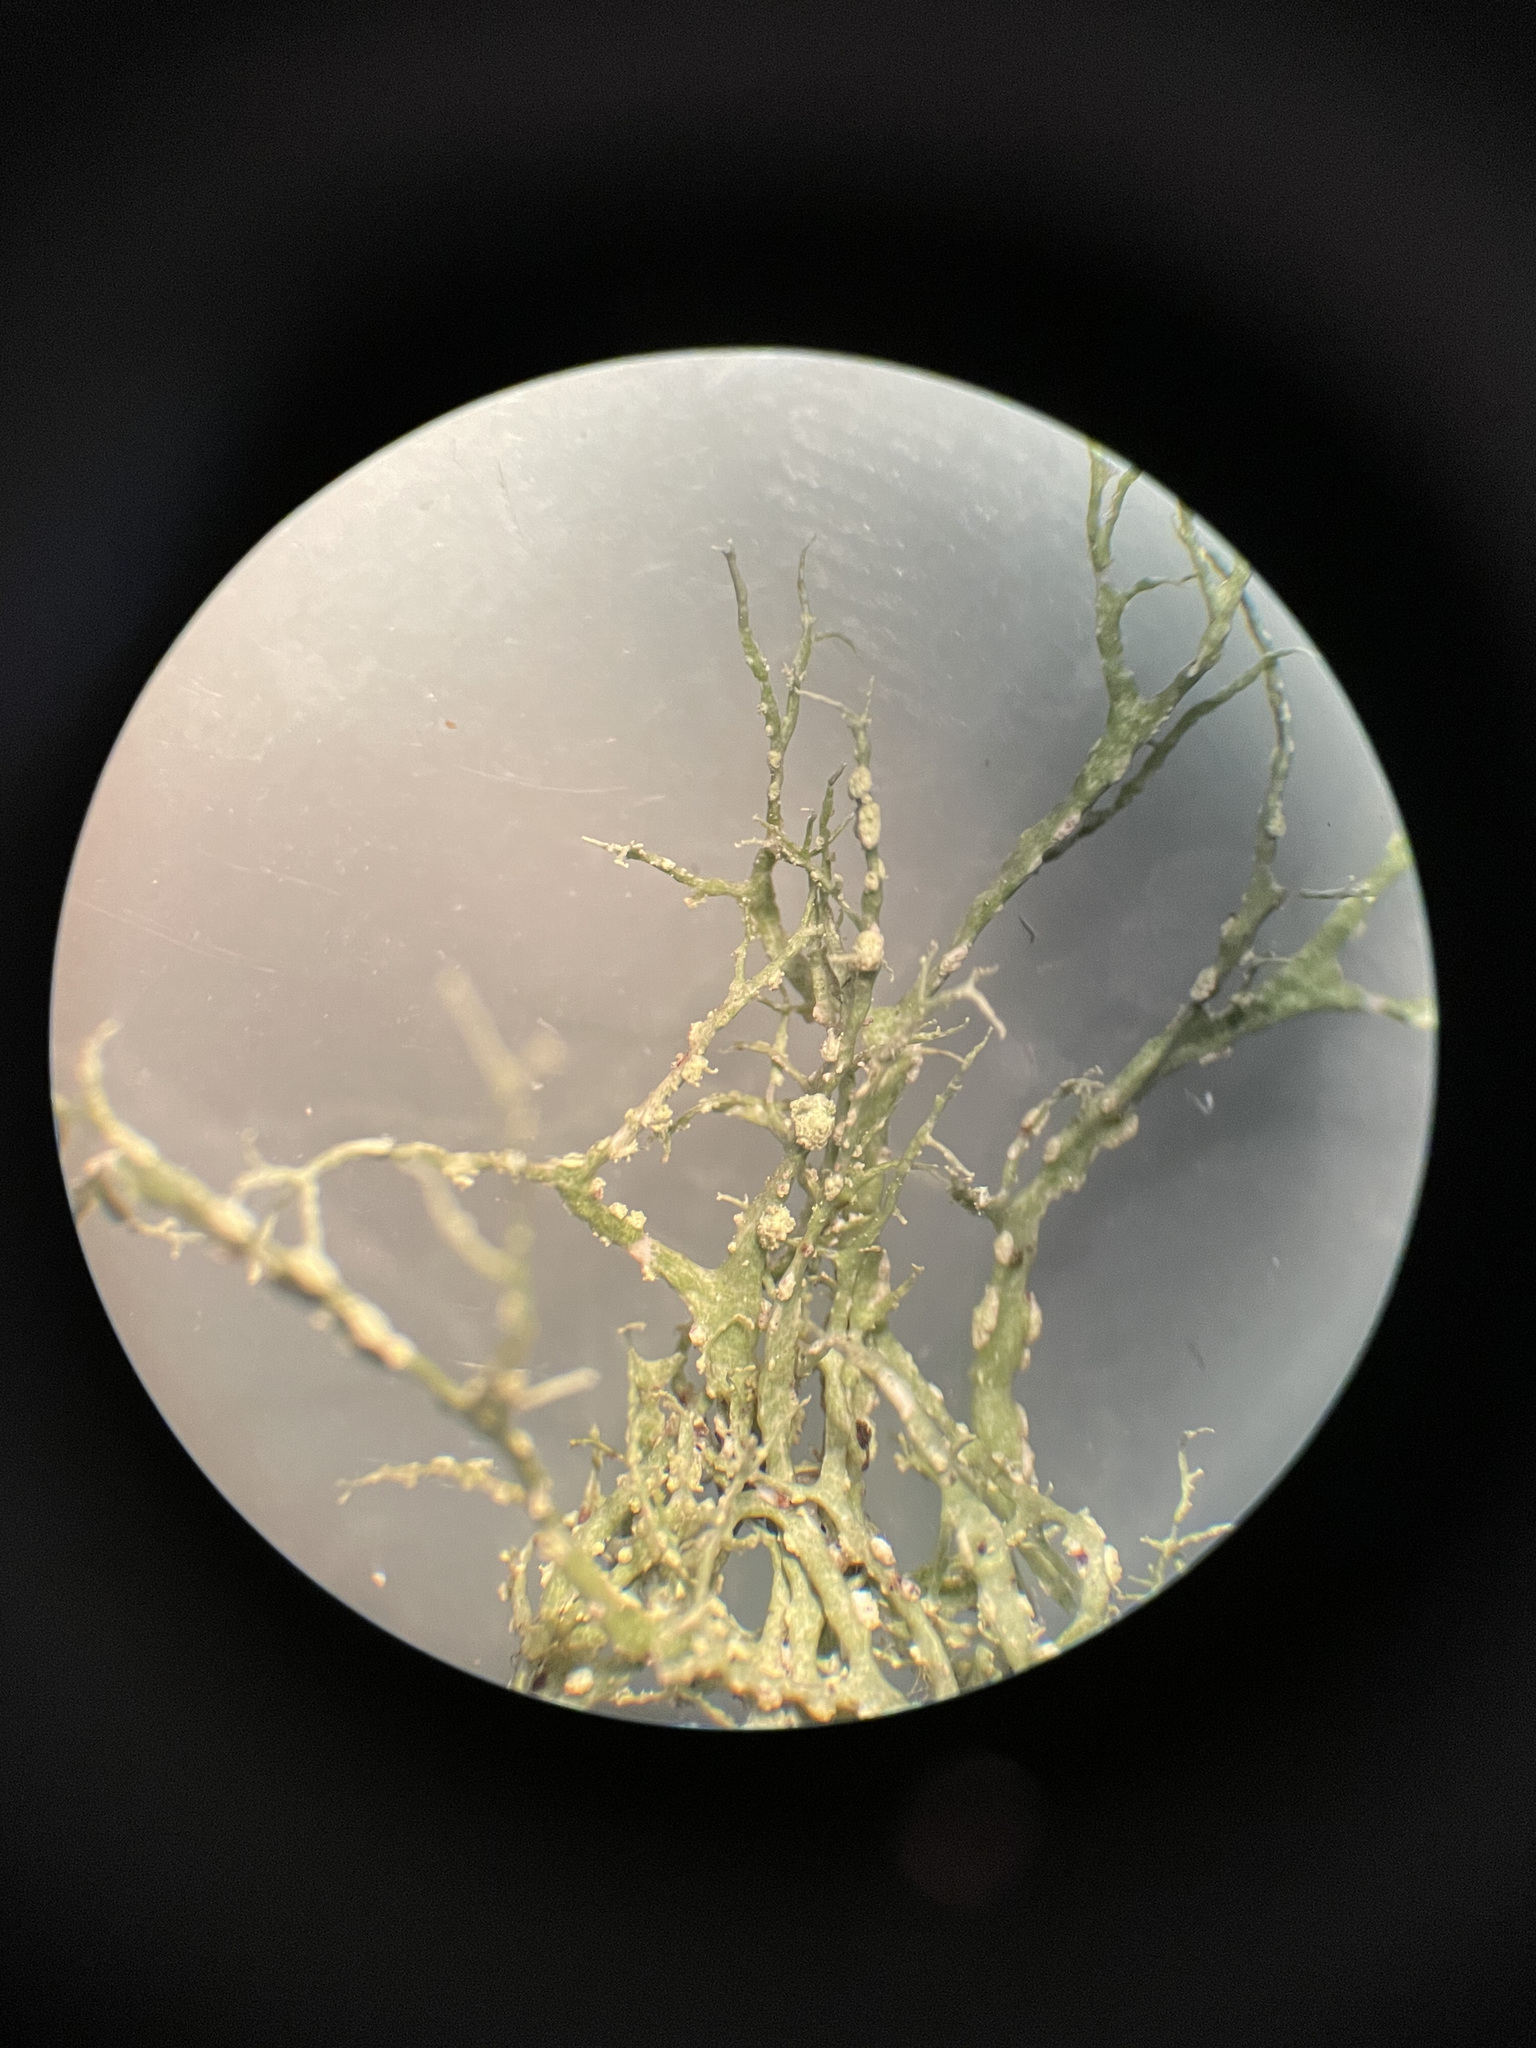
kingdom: Fungi
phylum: Ascomycota
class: Lecanoromycetes
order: Lecanorales
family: Ramalinaceae
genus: Ramalina
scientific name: Ramalina farinacea
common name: Farinose cartilage lichen
